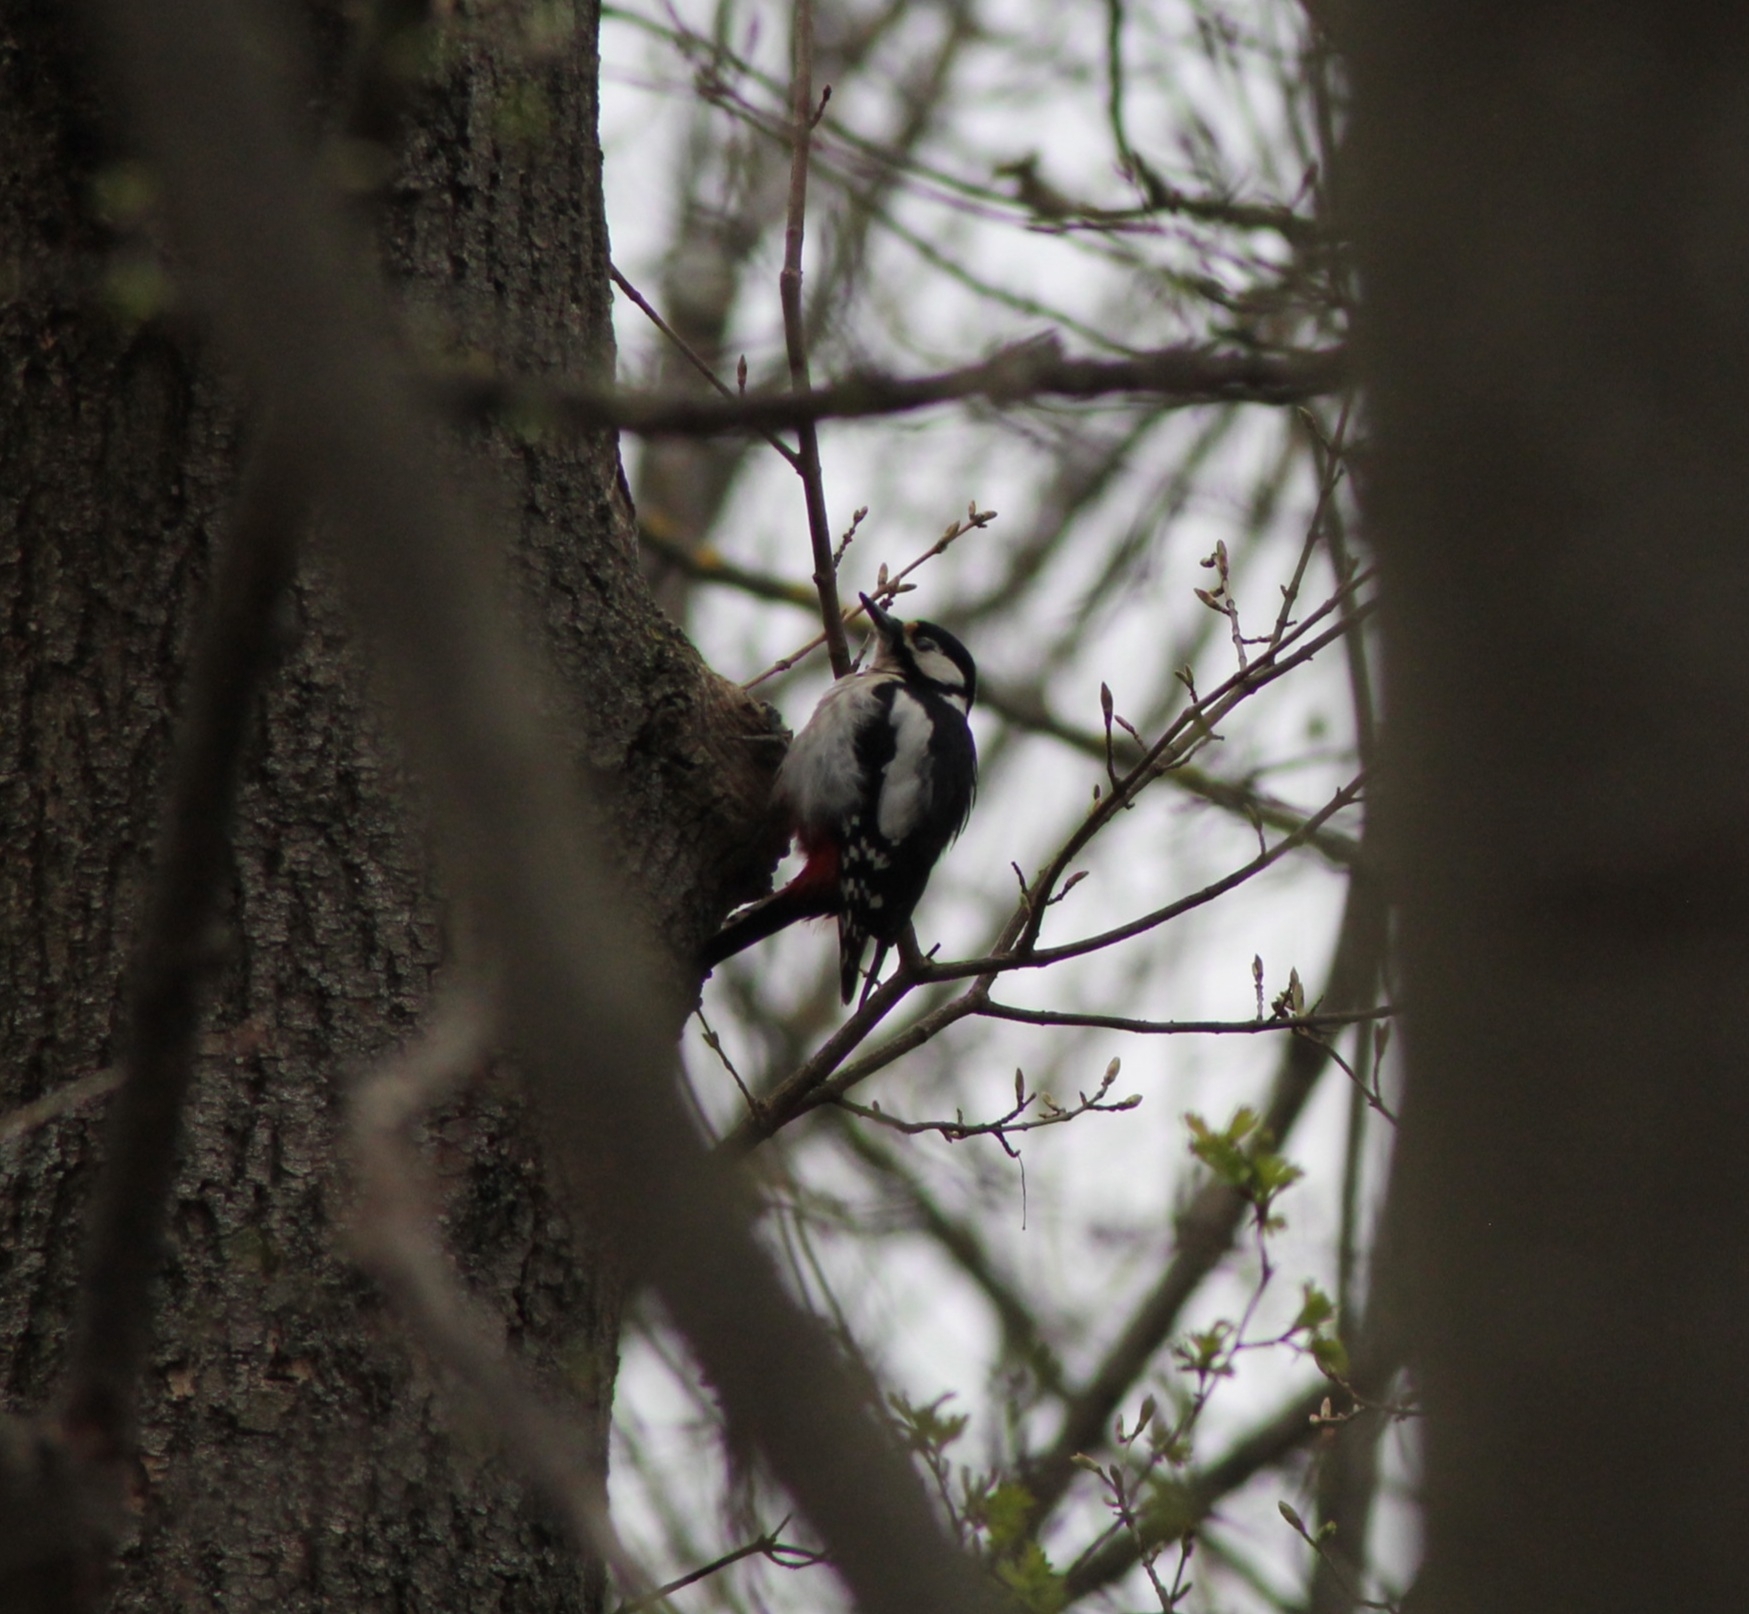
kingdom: Animalia
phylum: Chordata
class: Aves
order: Piciformes
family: Picidae
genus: Dendrocopos
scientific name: Dendrocopos major
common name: Great spotted woodpecker
